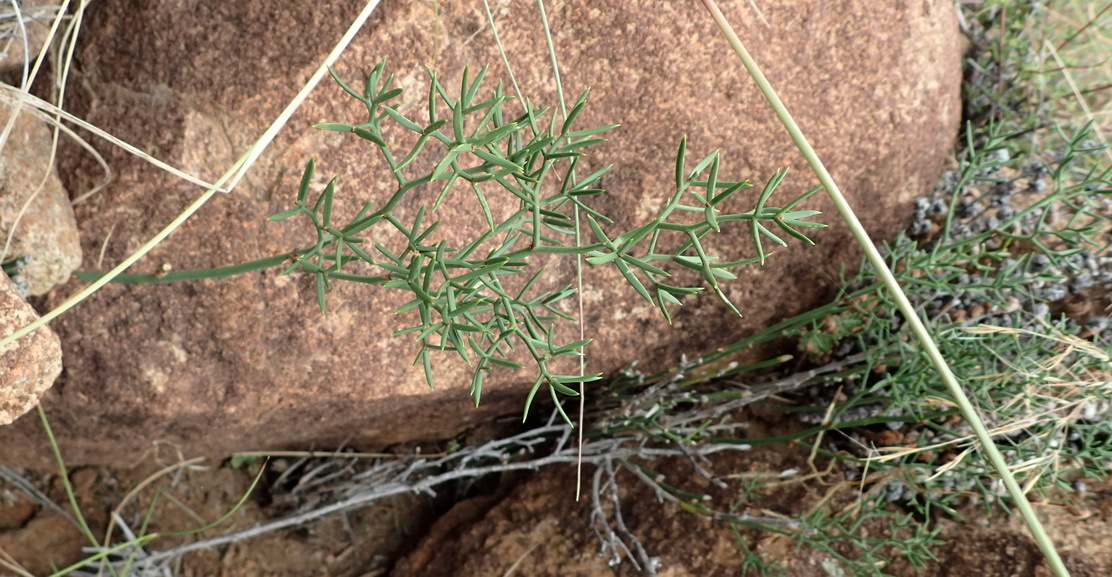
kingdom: Plantae
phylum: Tracheophyta
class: Liliopsida
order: Asparagales
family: Asparagaceae
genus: Asparagus
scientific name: Asparagus striatus
